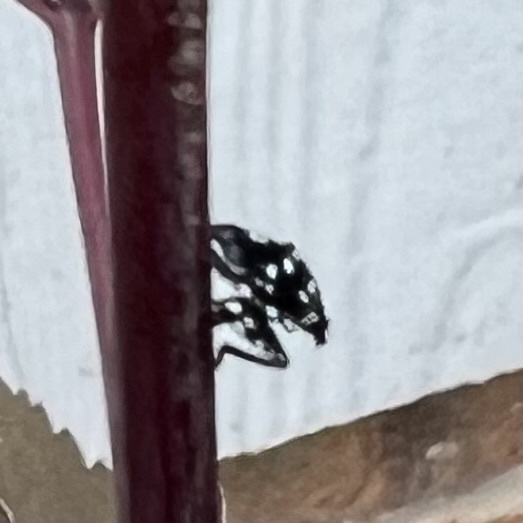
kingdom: Animalia
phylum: Arthropoda
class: Insecta
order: Hemiptera
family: Fulgoridae
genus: Lycorma
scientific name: Lycorma delicatula
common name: Spotted lanternfly
